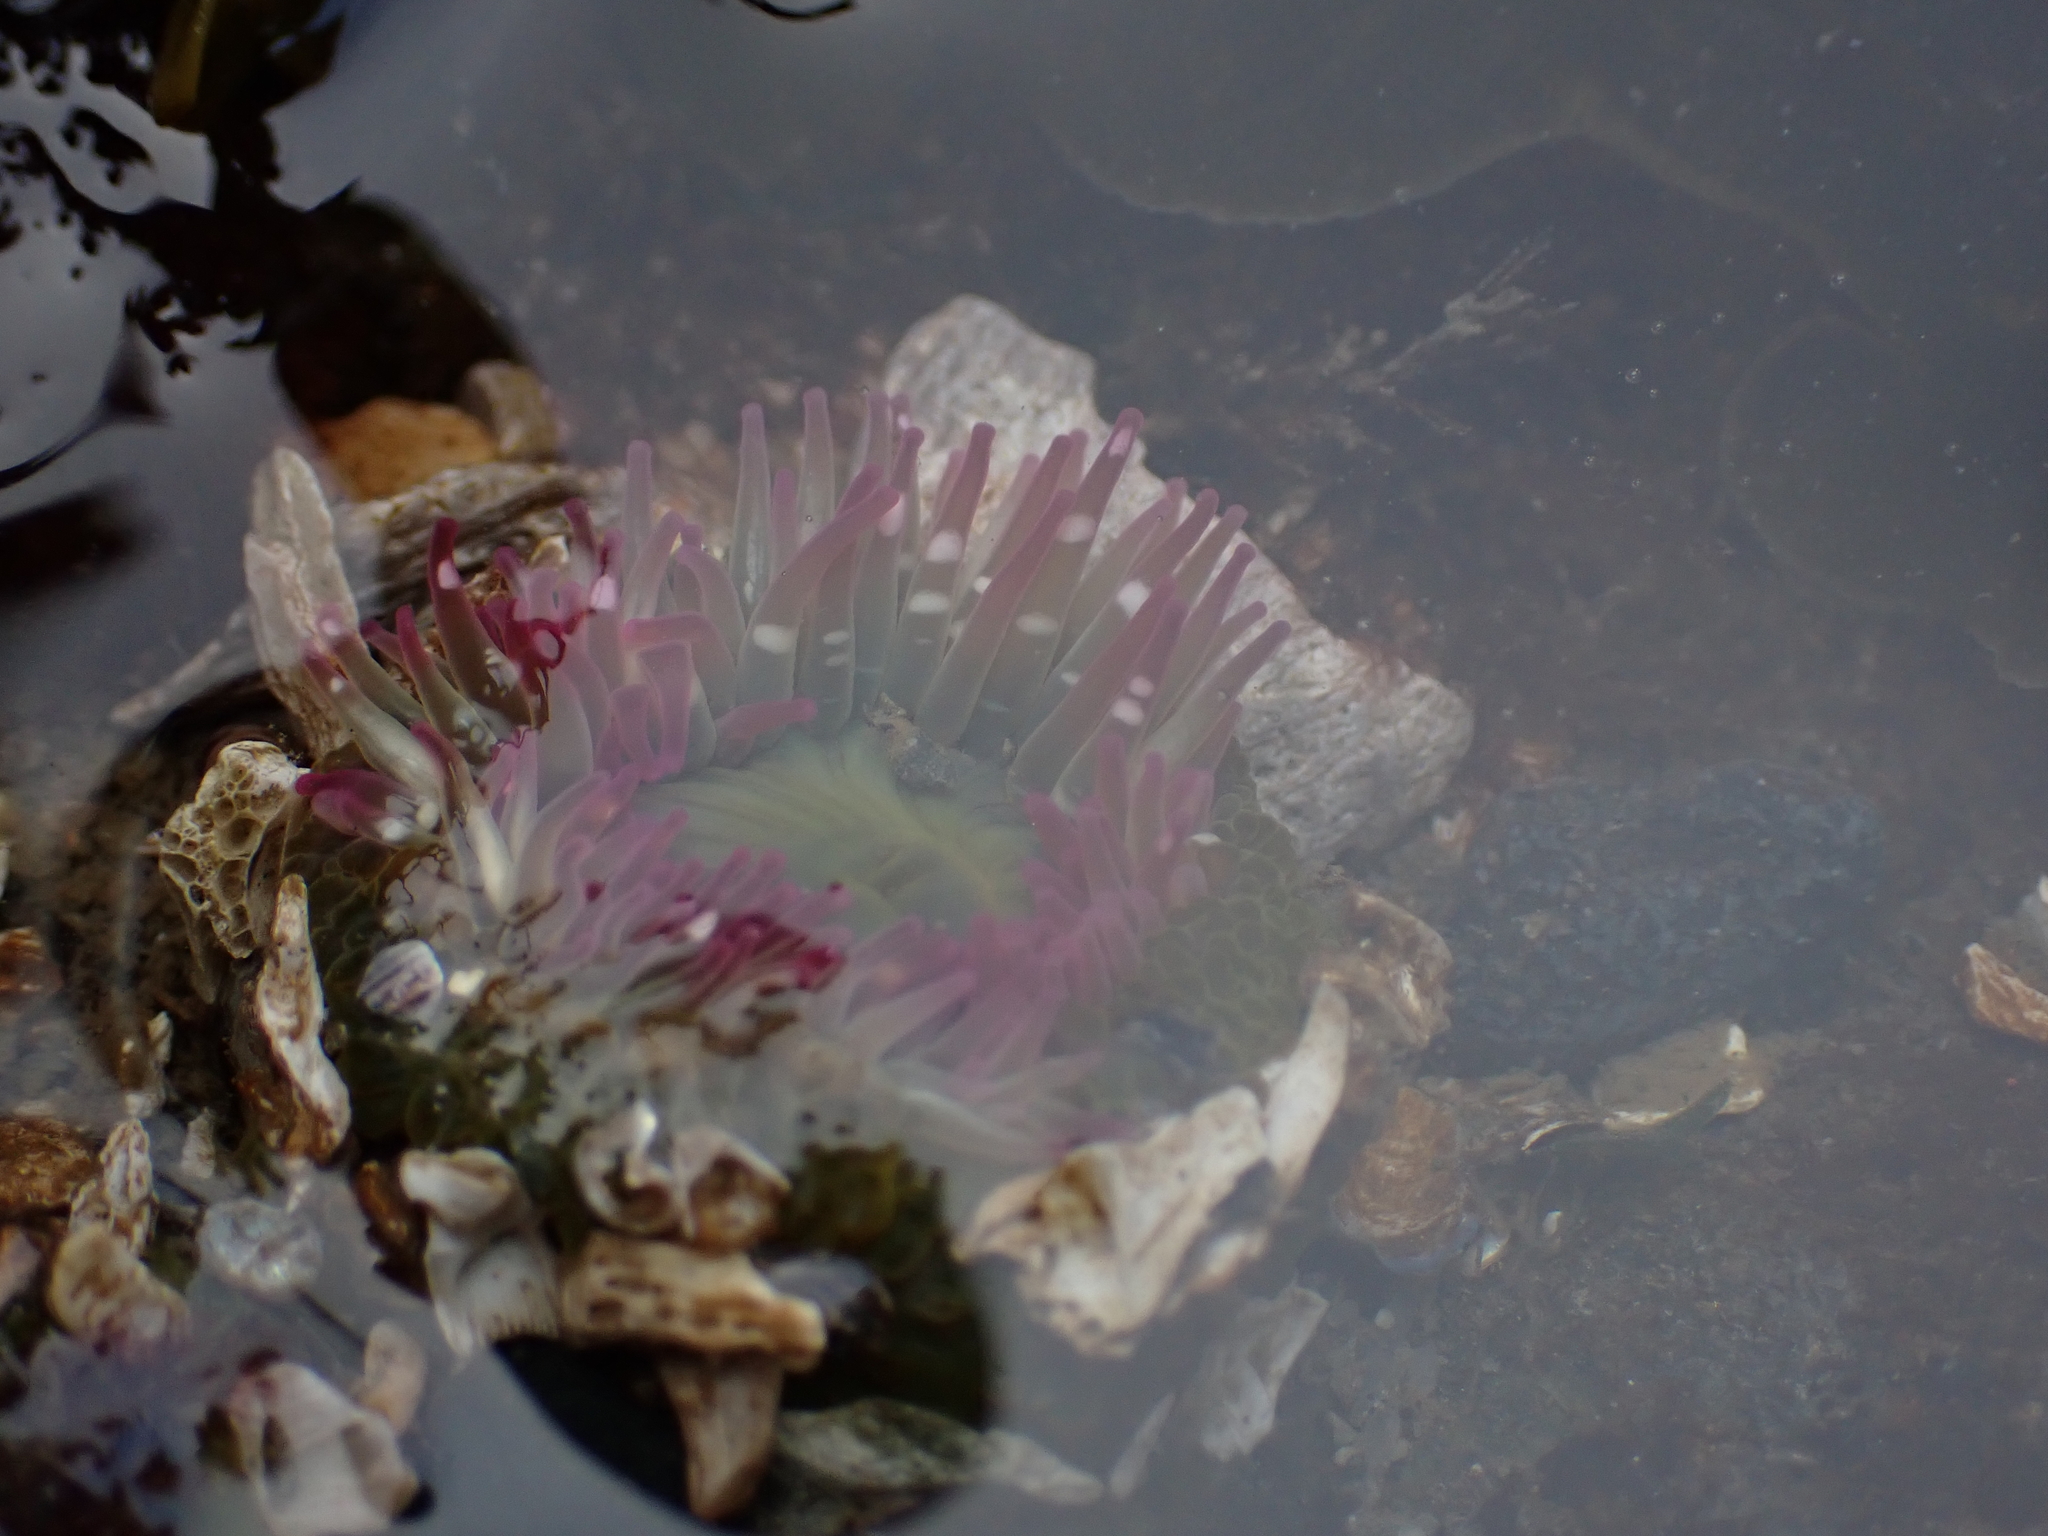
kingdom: Animalia
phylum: Cnidaria
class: Anthozoa
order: Actiniaria
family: Actiniidae
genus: Anthopleura
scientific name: Anthopleura elegantissima
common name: Clonal anemone
